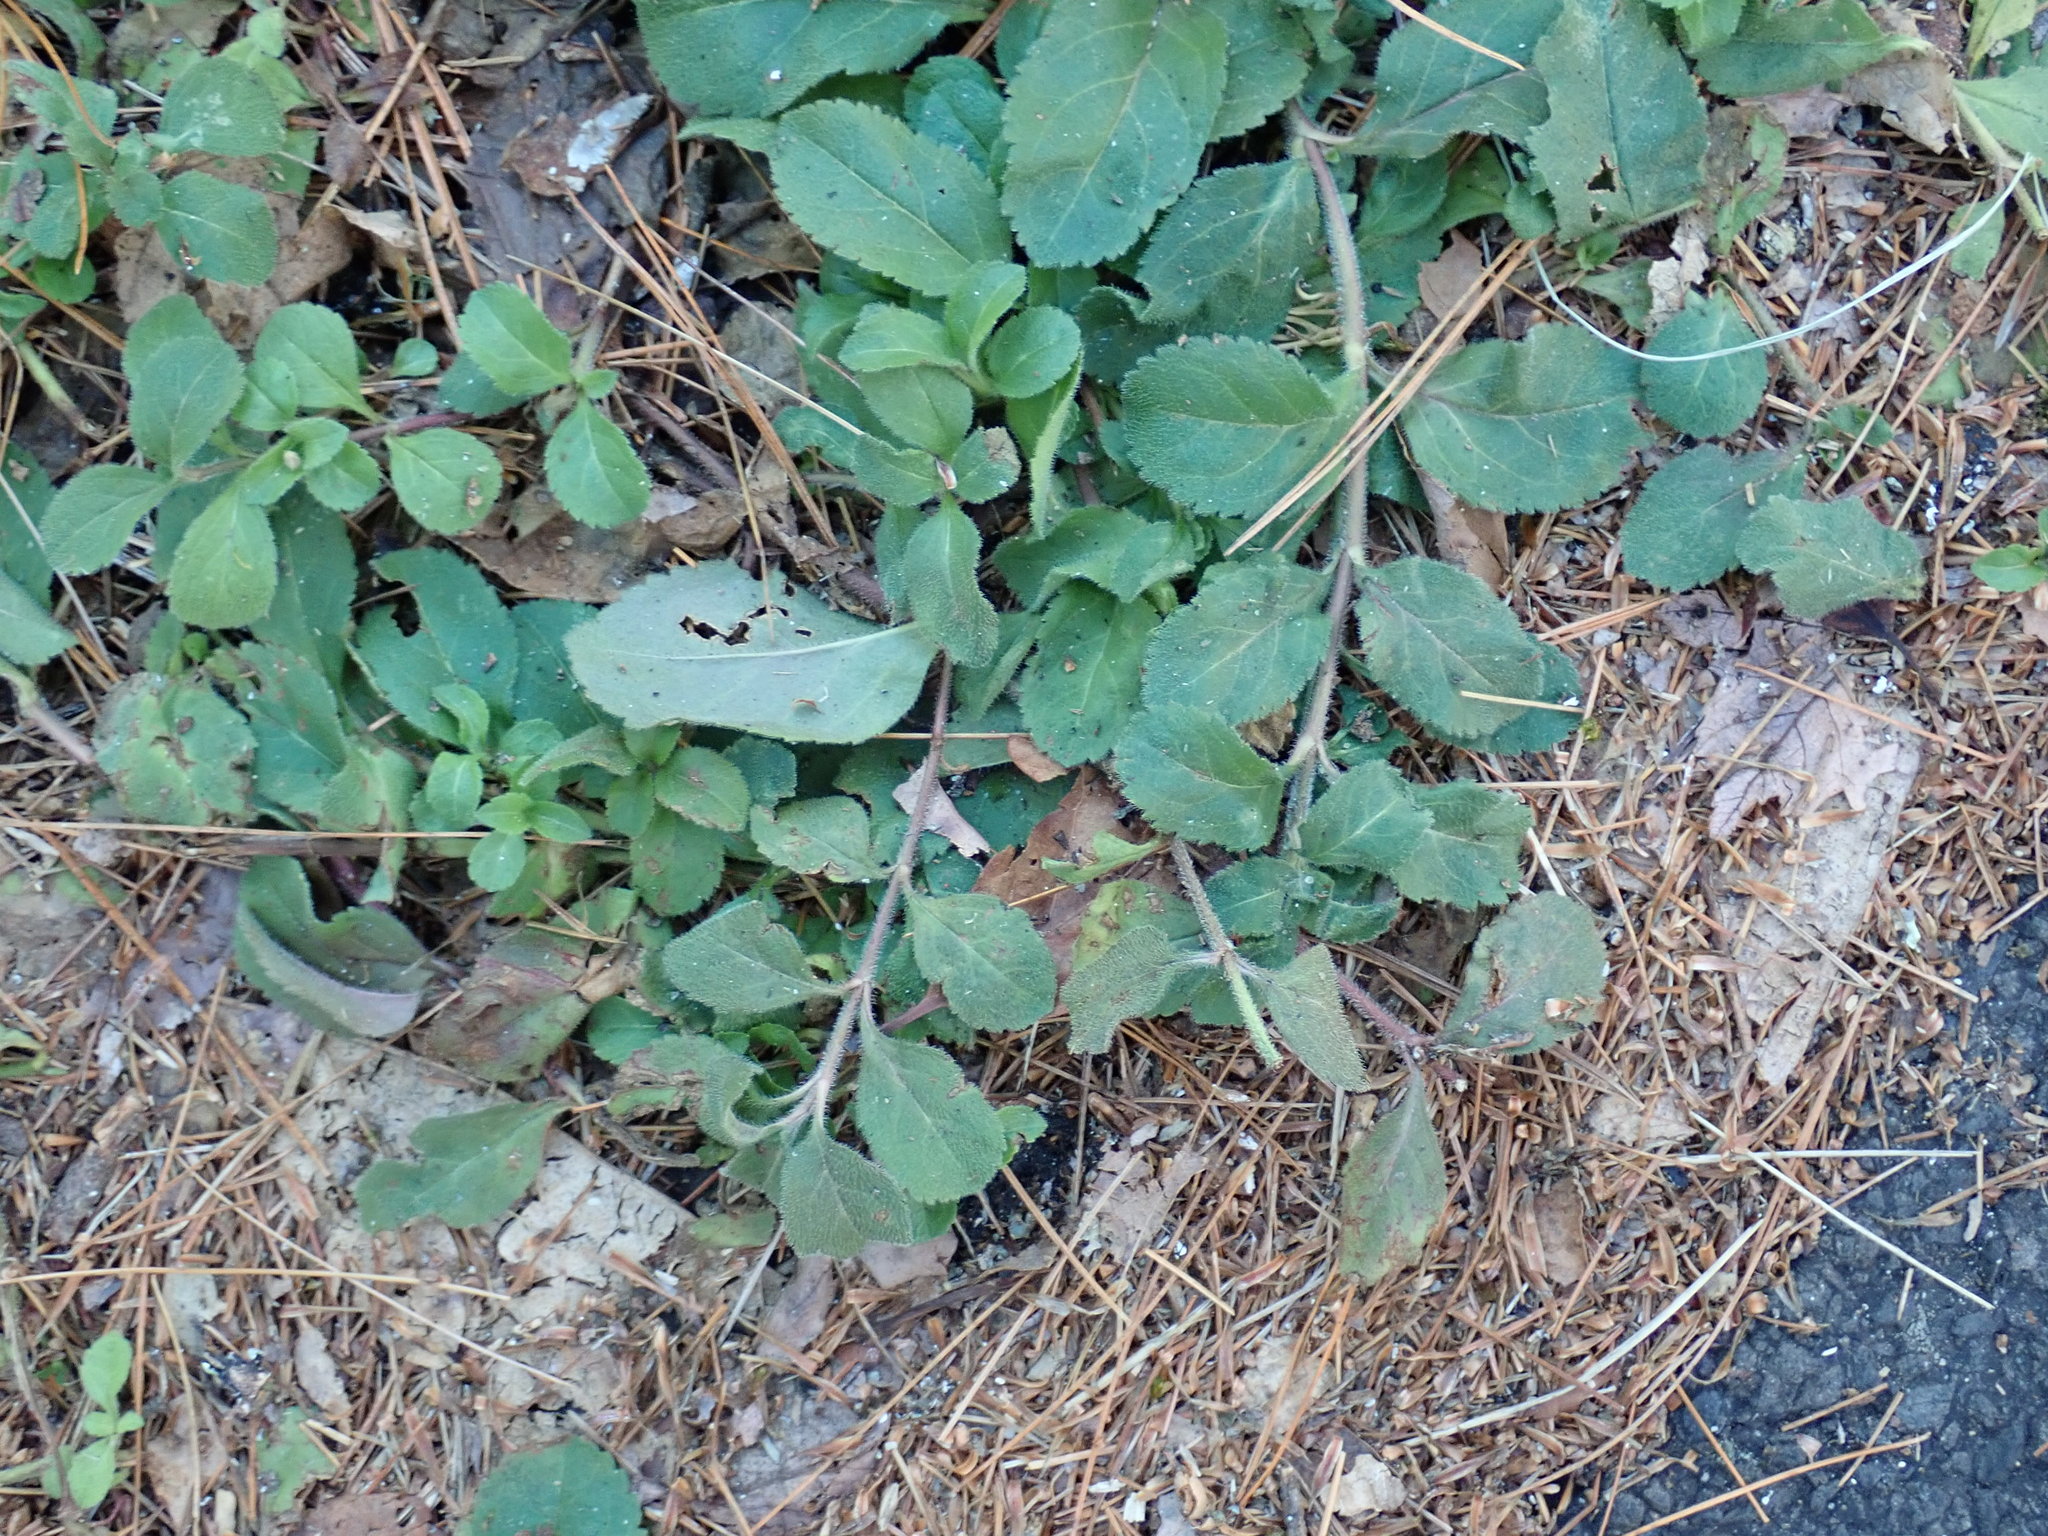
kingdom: Plantae
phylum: Tracheophyta
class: Magnoliopsida
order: Lamiales
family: Plantaginaceae
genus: Veronica
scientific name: Veronica officinalis
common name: Common speedwell
